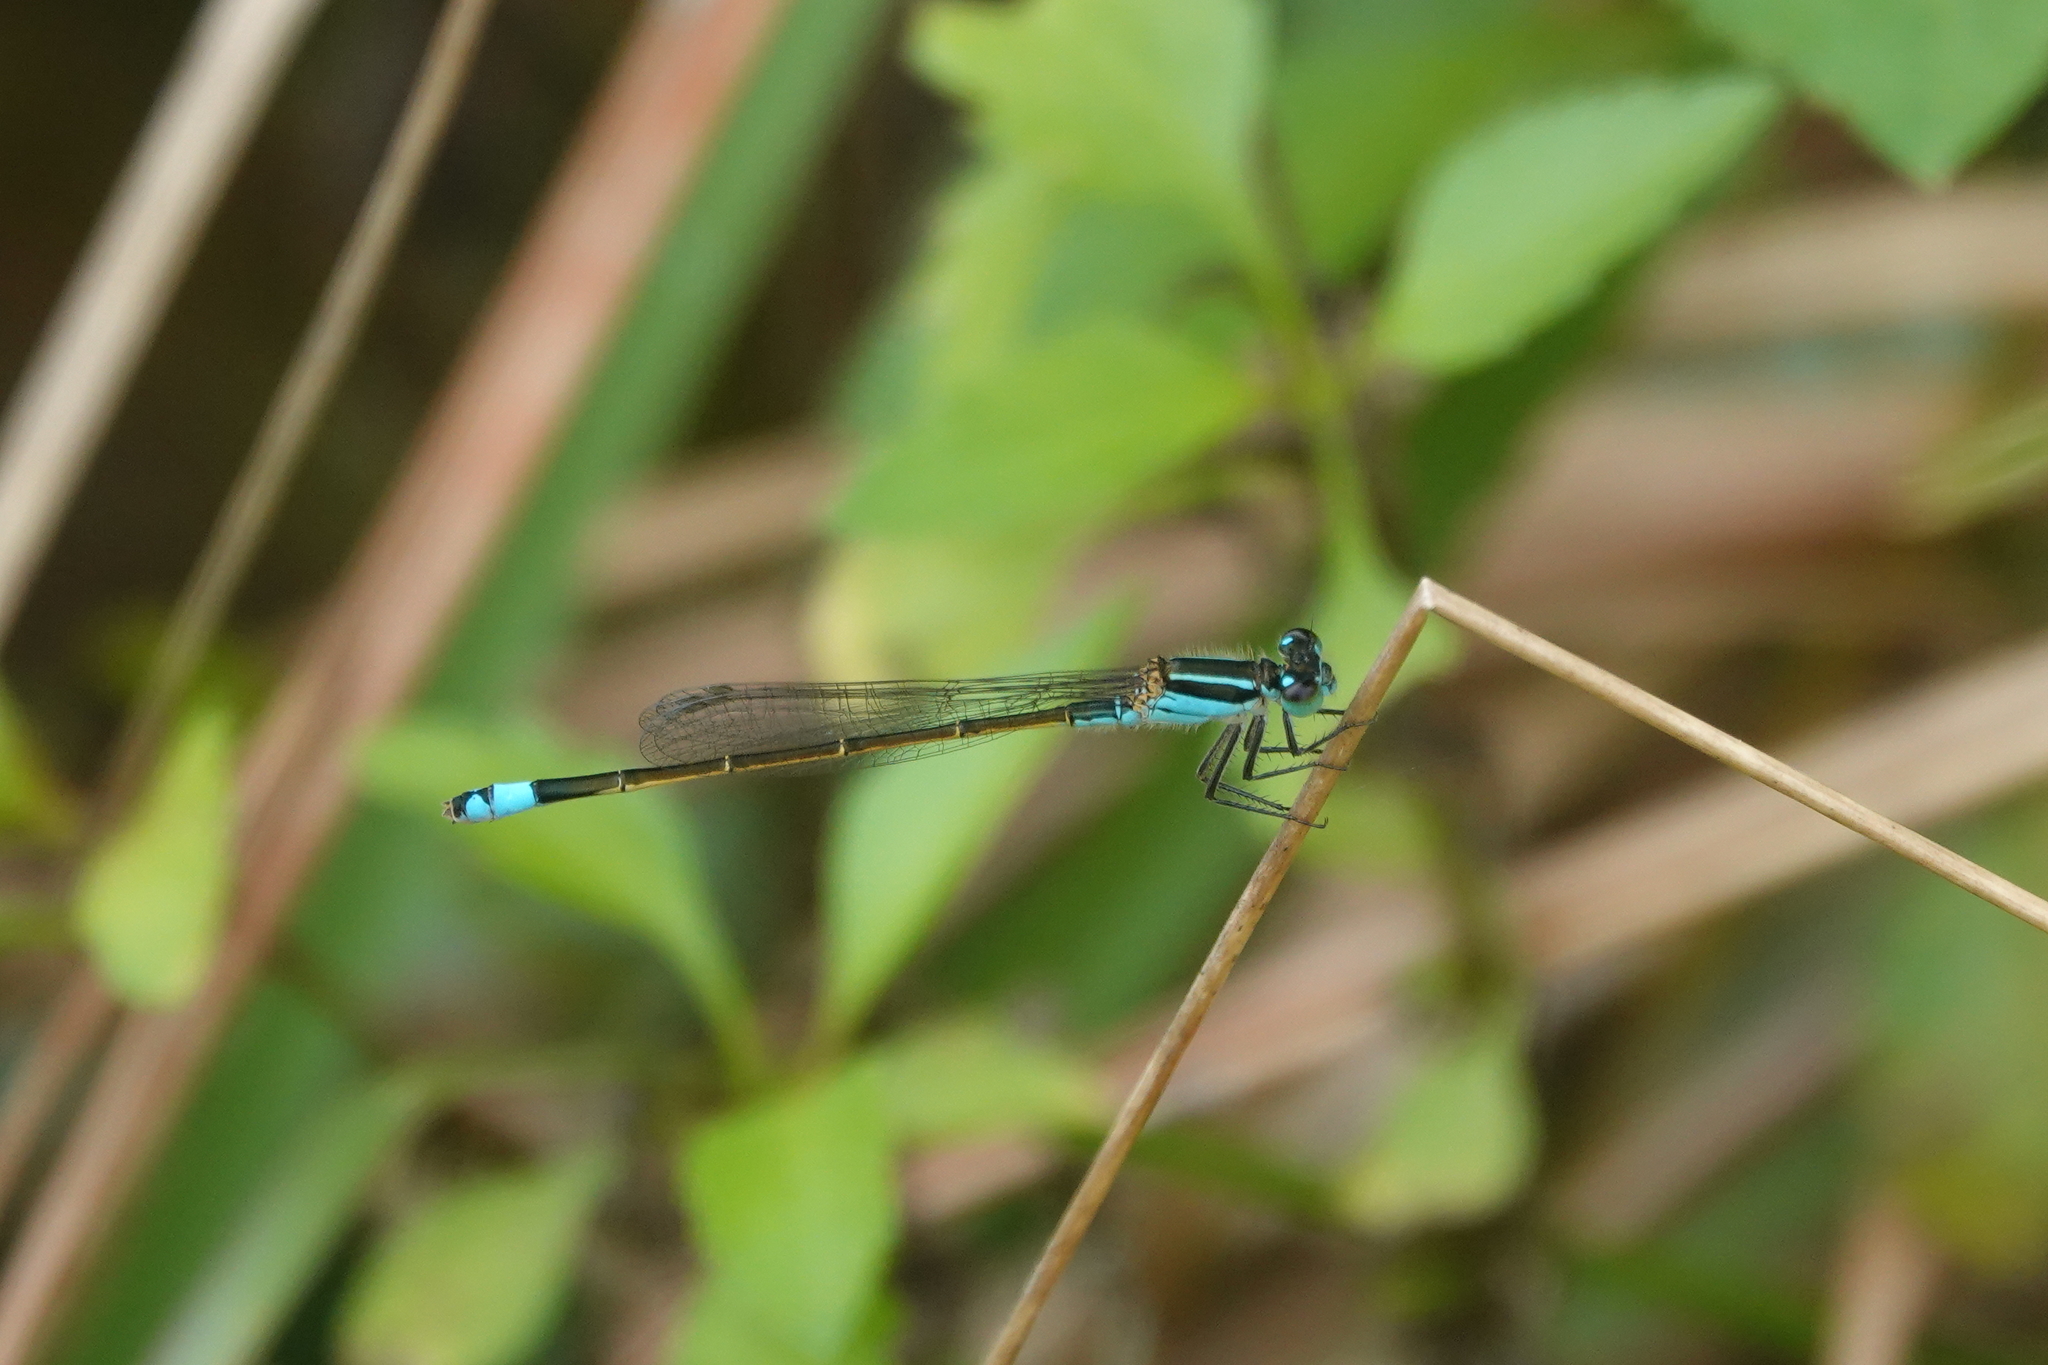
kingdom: Animalia
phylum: Arthropoda
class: Insecta
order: Odonata
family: Coenagrionidae
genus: Ischnura
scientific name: Ischnura ramburii
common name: Rambur's forktail
